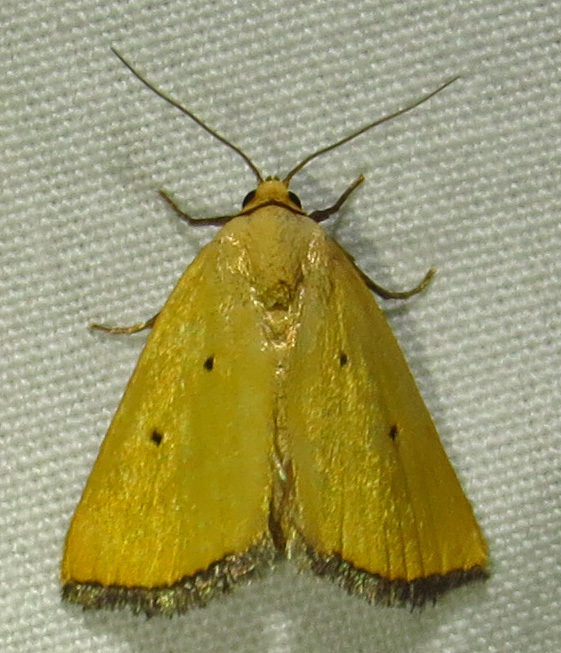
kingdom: Animalia
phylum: Arthropoda
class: Insecta
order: Lepidoptera
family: Noctuidae
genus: Marimatha
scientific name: Marimatha nigrofimbria
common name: Black-bordered lemon moth
